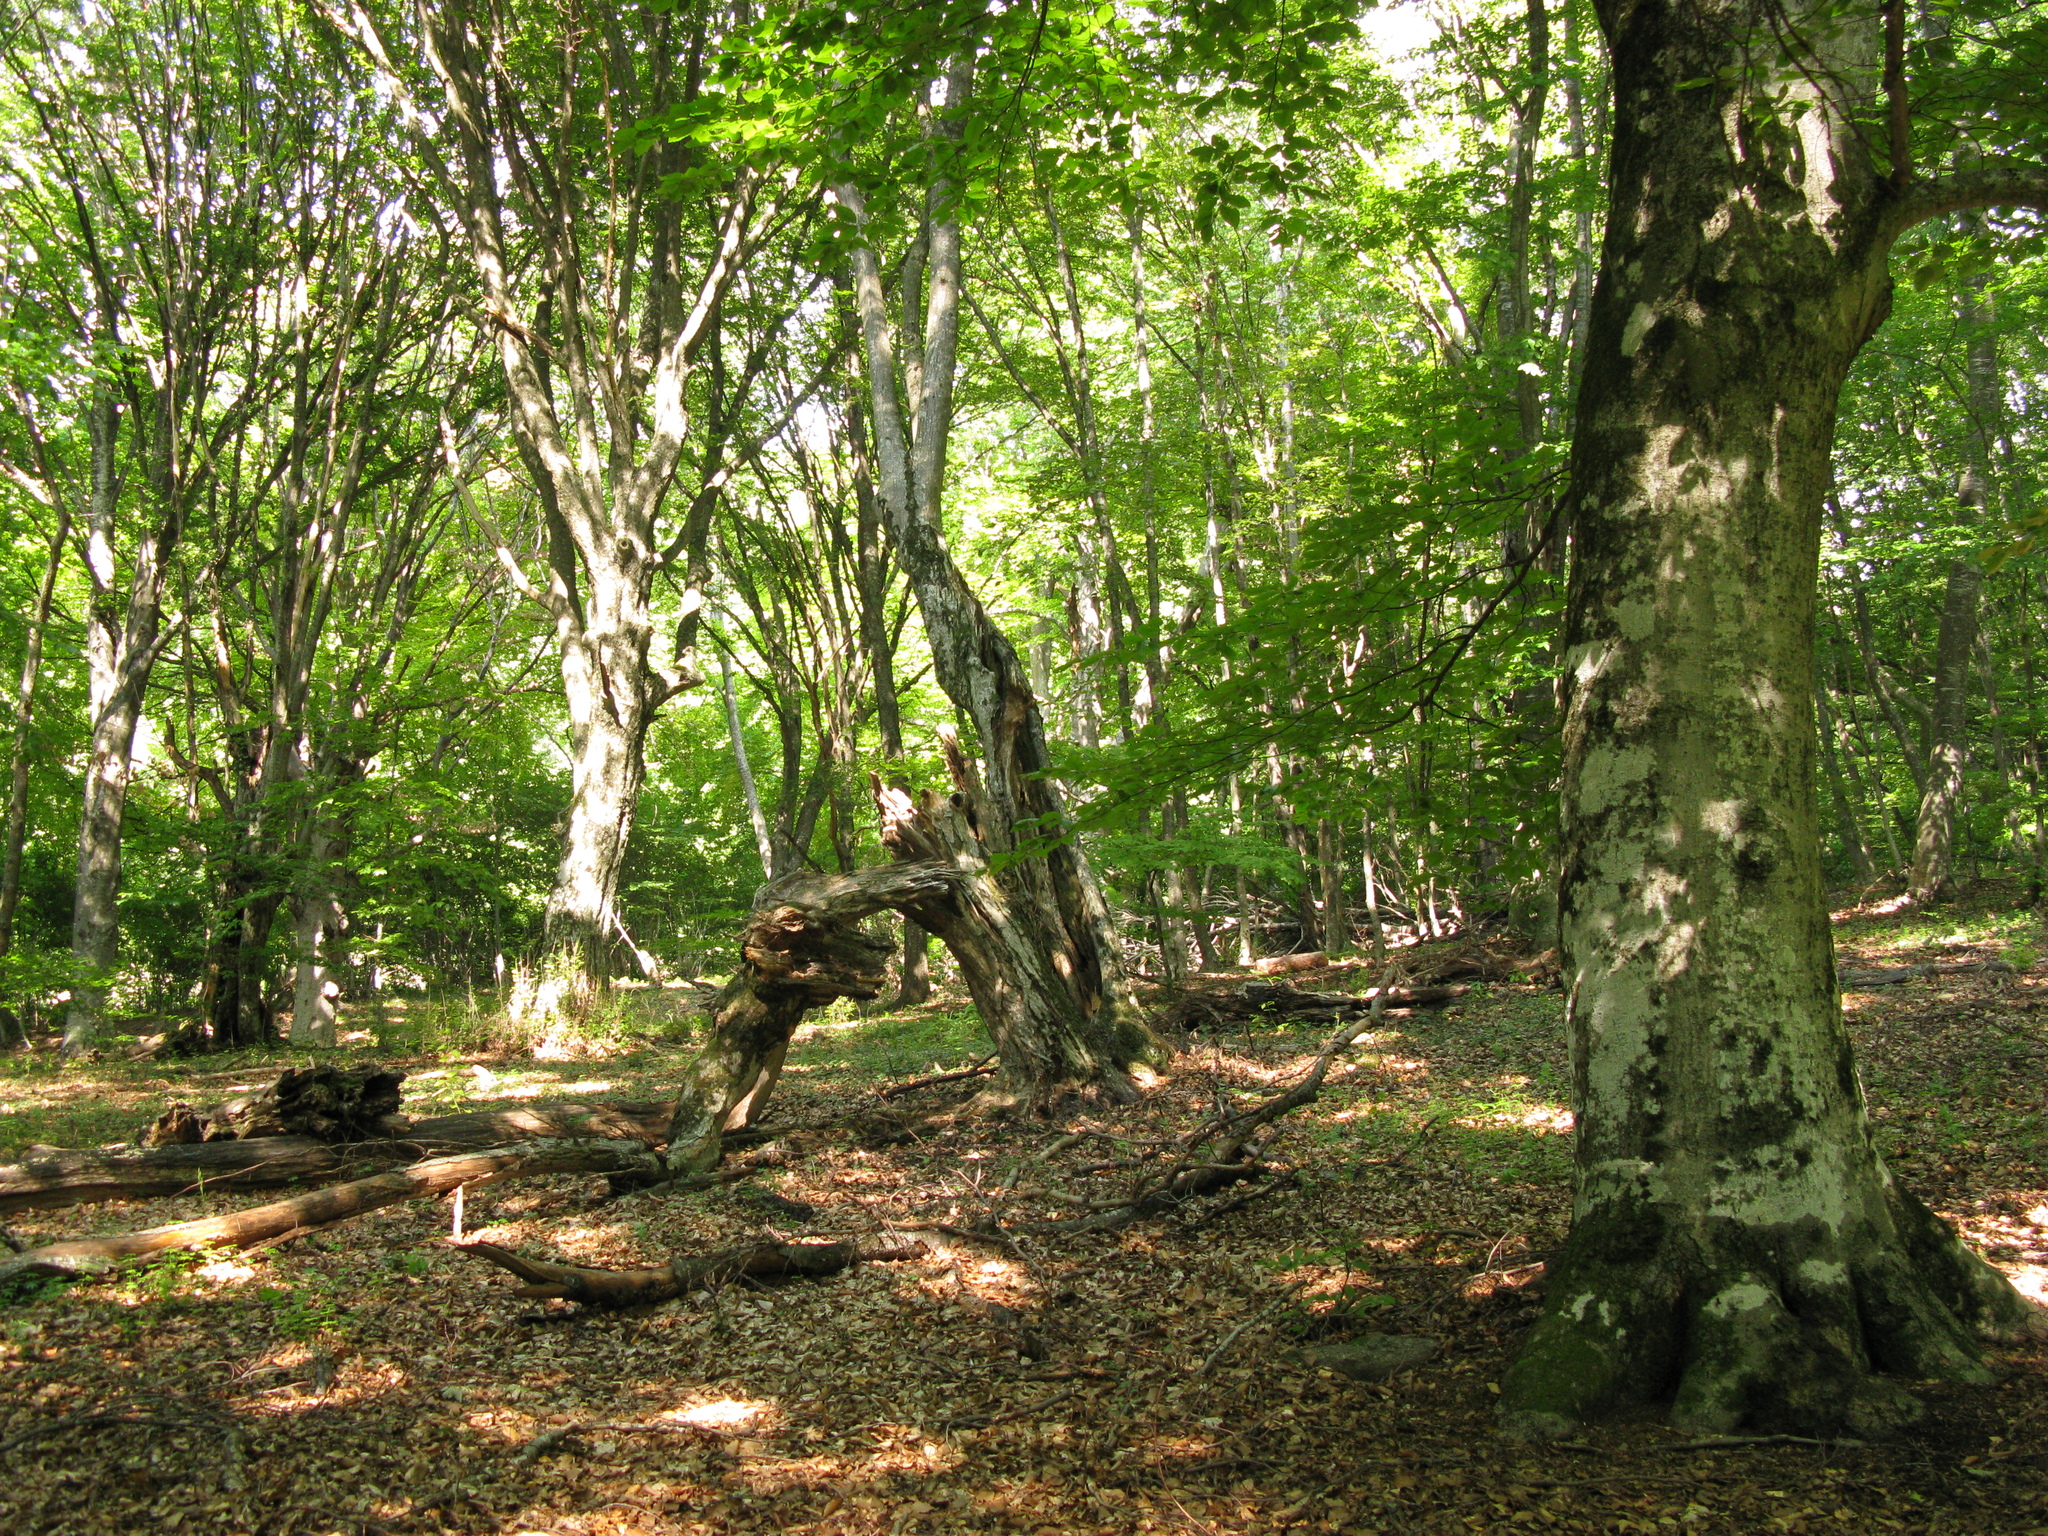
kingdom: Plantae
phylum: Tracheophyta
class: Magnoliopsida
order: Fagales
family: Fagaceae
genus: Fagus
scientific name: Fagus taurica
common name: Crimean beech
